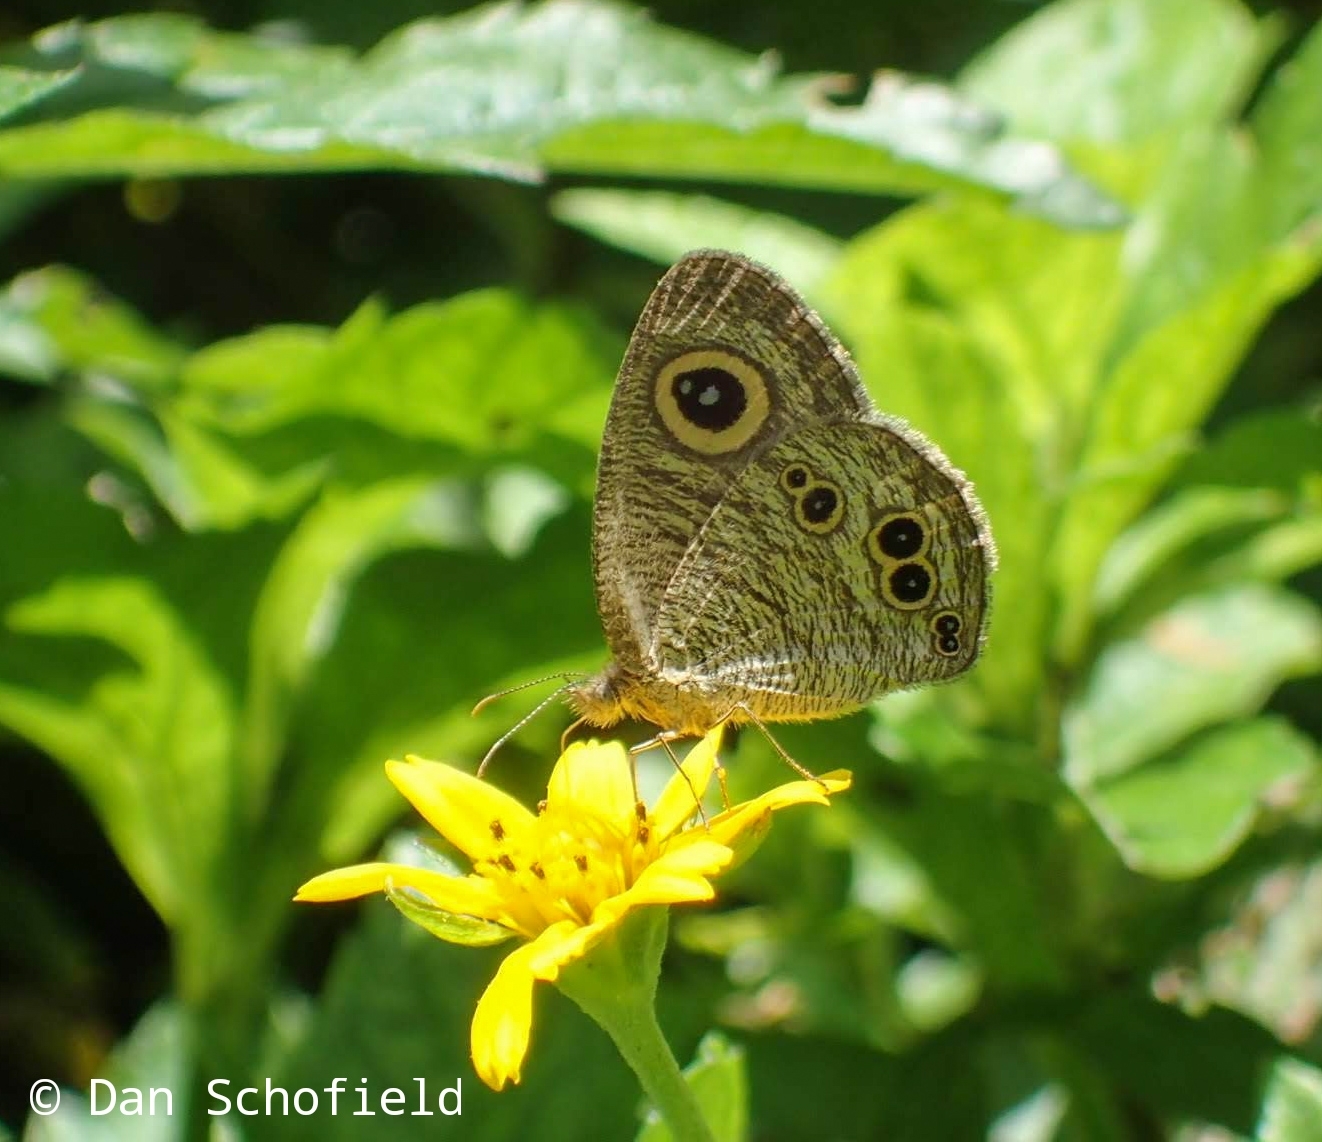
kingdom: Animalia
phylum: Arthropoda
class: Insecta
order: Lepidoptera
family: Nymphalidae
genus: Ypthima
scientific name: Ypthima baldus
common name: Common five-ring
